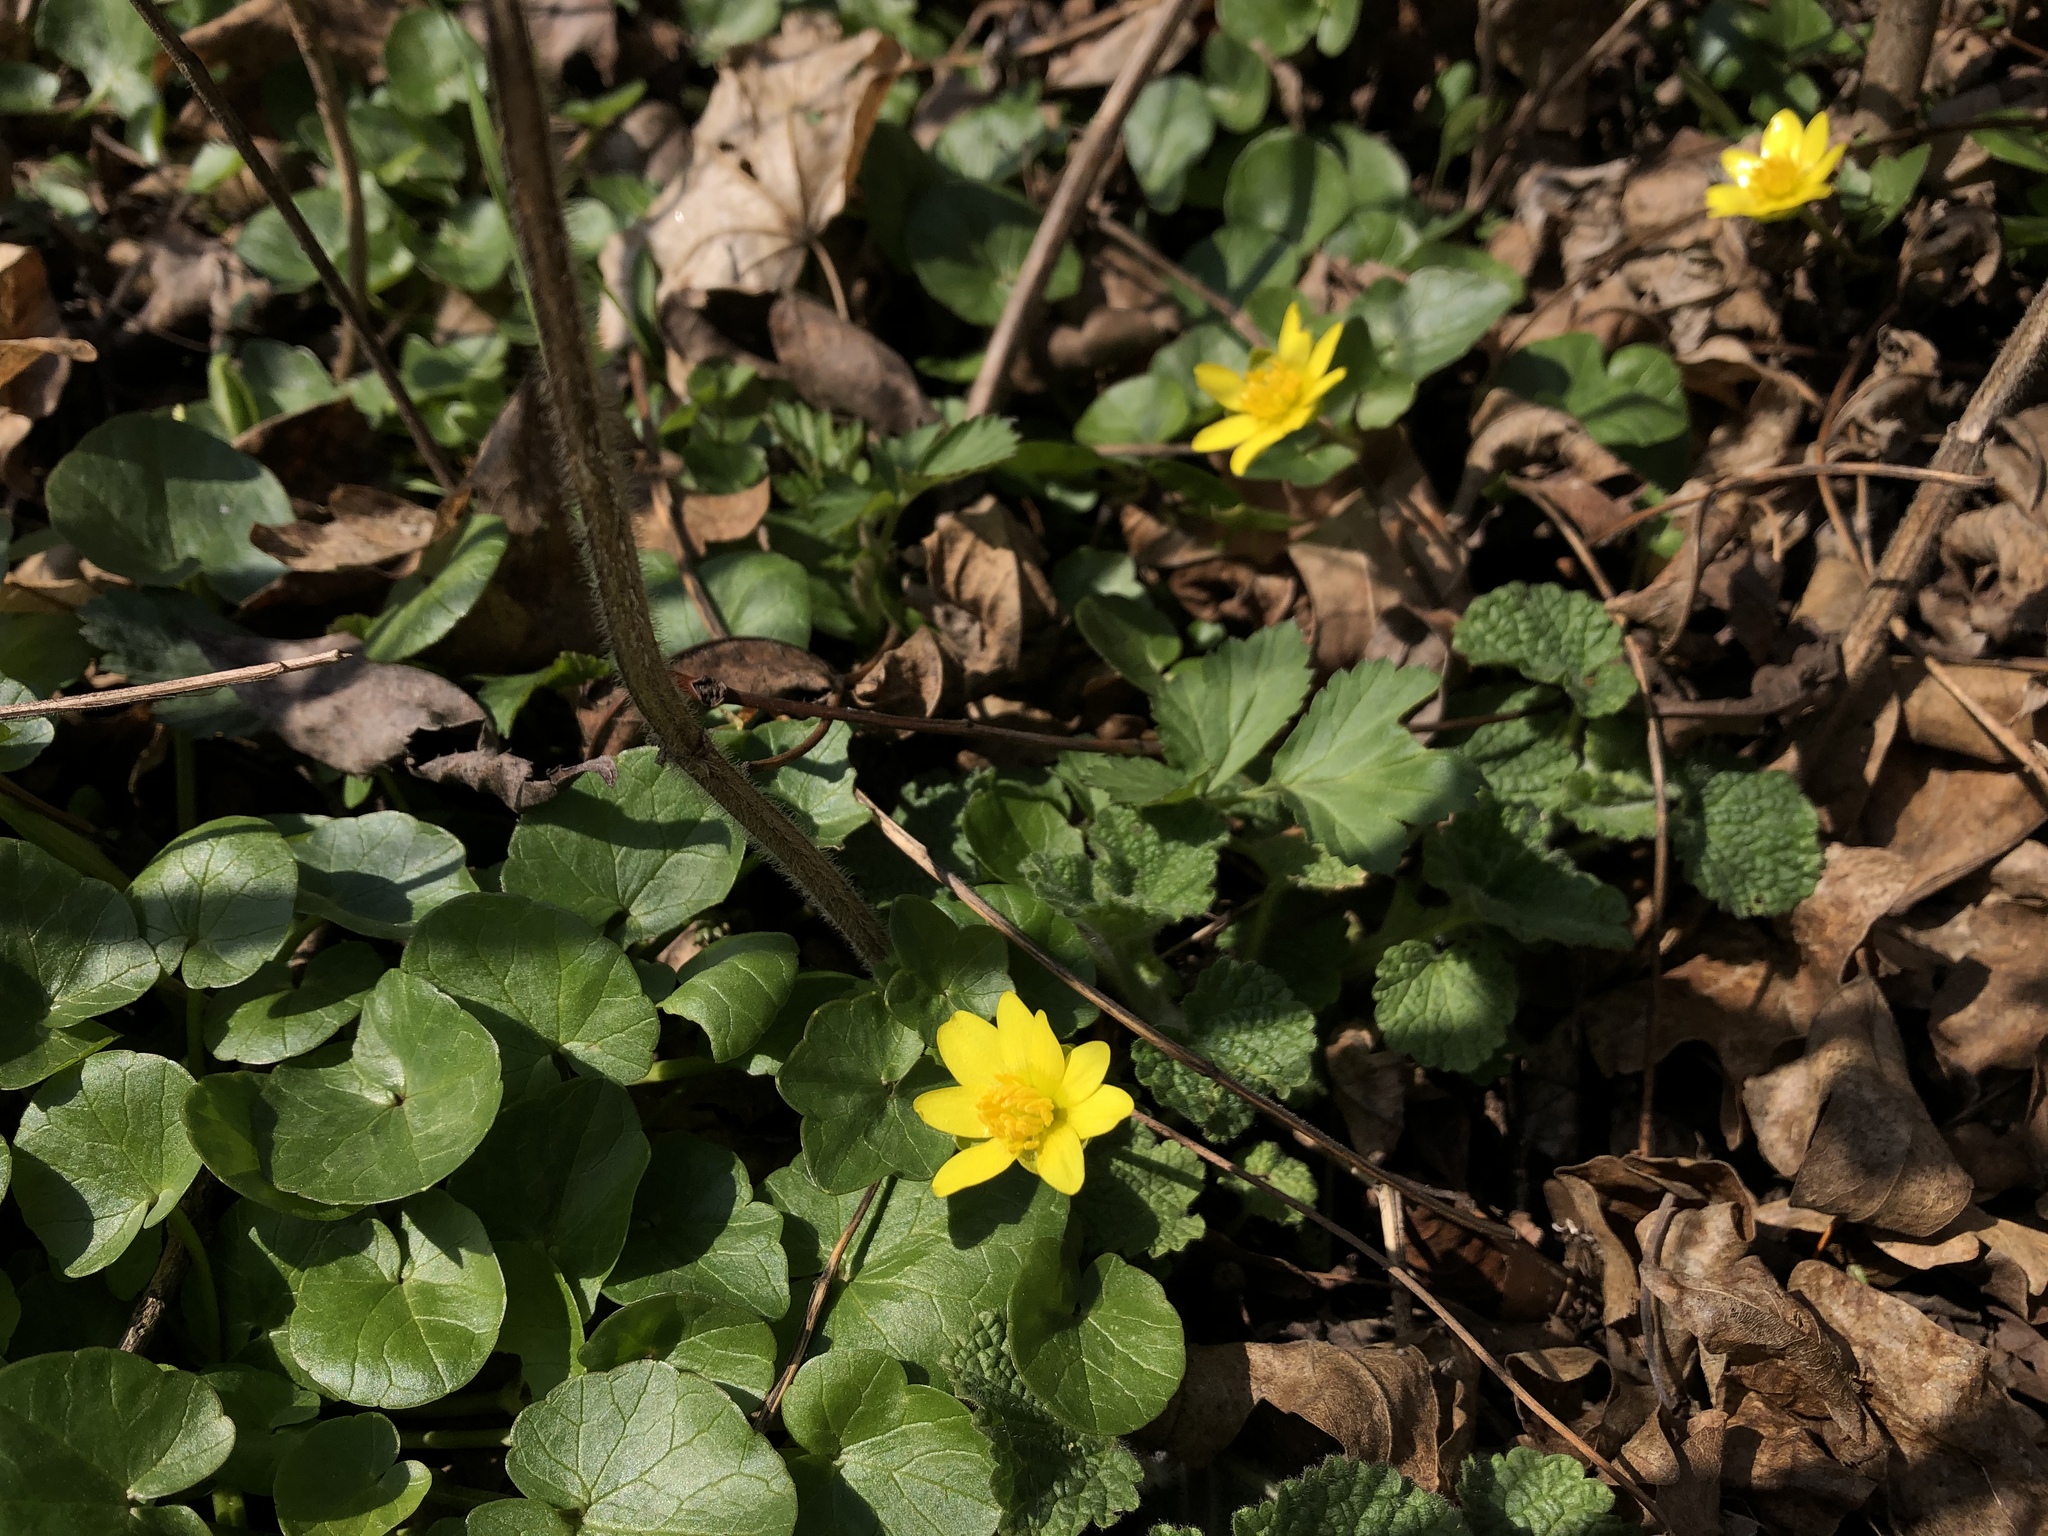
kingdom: Plantae
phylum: Tracheophyta
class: Magnoliopsida
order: Ranunculales
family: Ranunculaceae
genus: Ficaria
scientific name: Ficaria verna
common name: Lesser celandine
